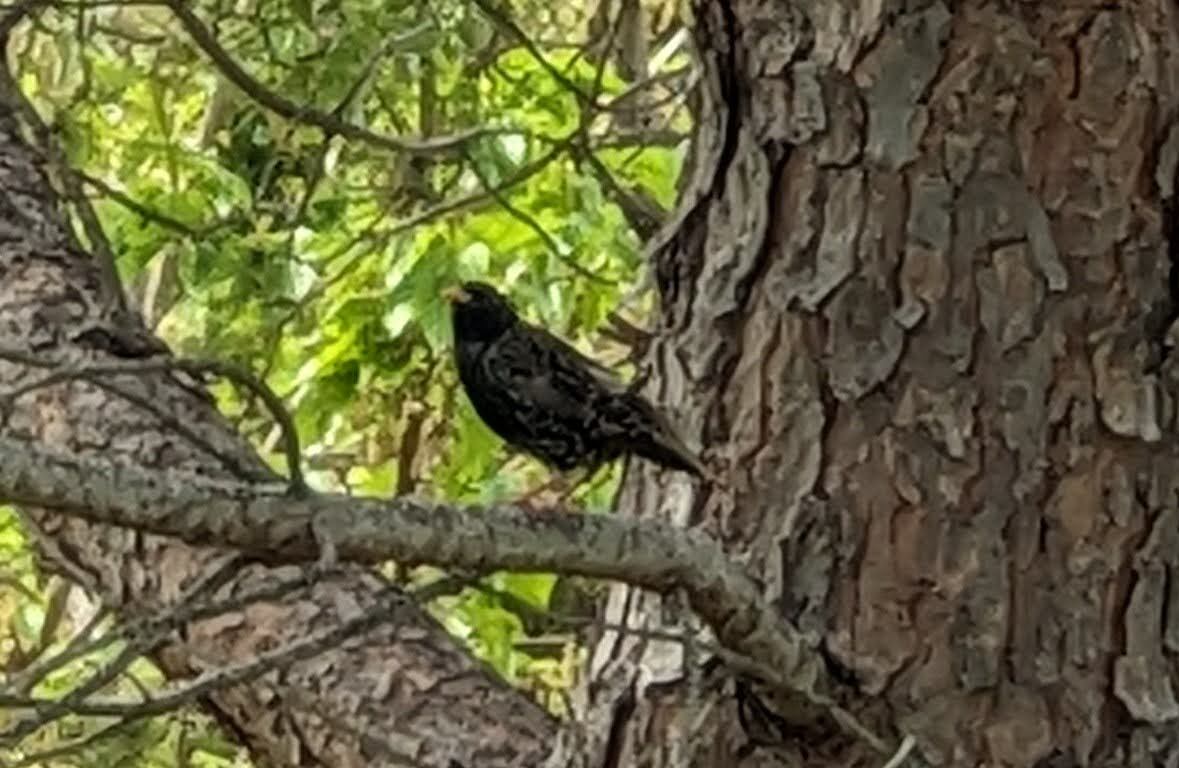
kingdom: Animalia
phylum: Chordata
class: Aves
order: Passeriformes
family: Sturnidae
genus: Sturnus
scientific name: Sturnus vulgaris
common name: Common starling
